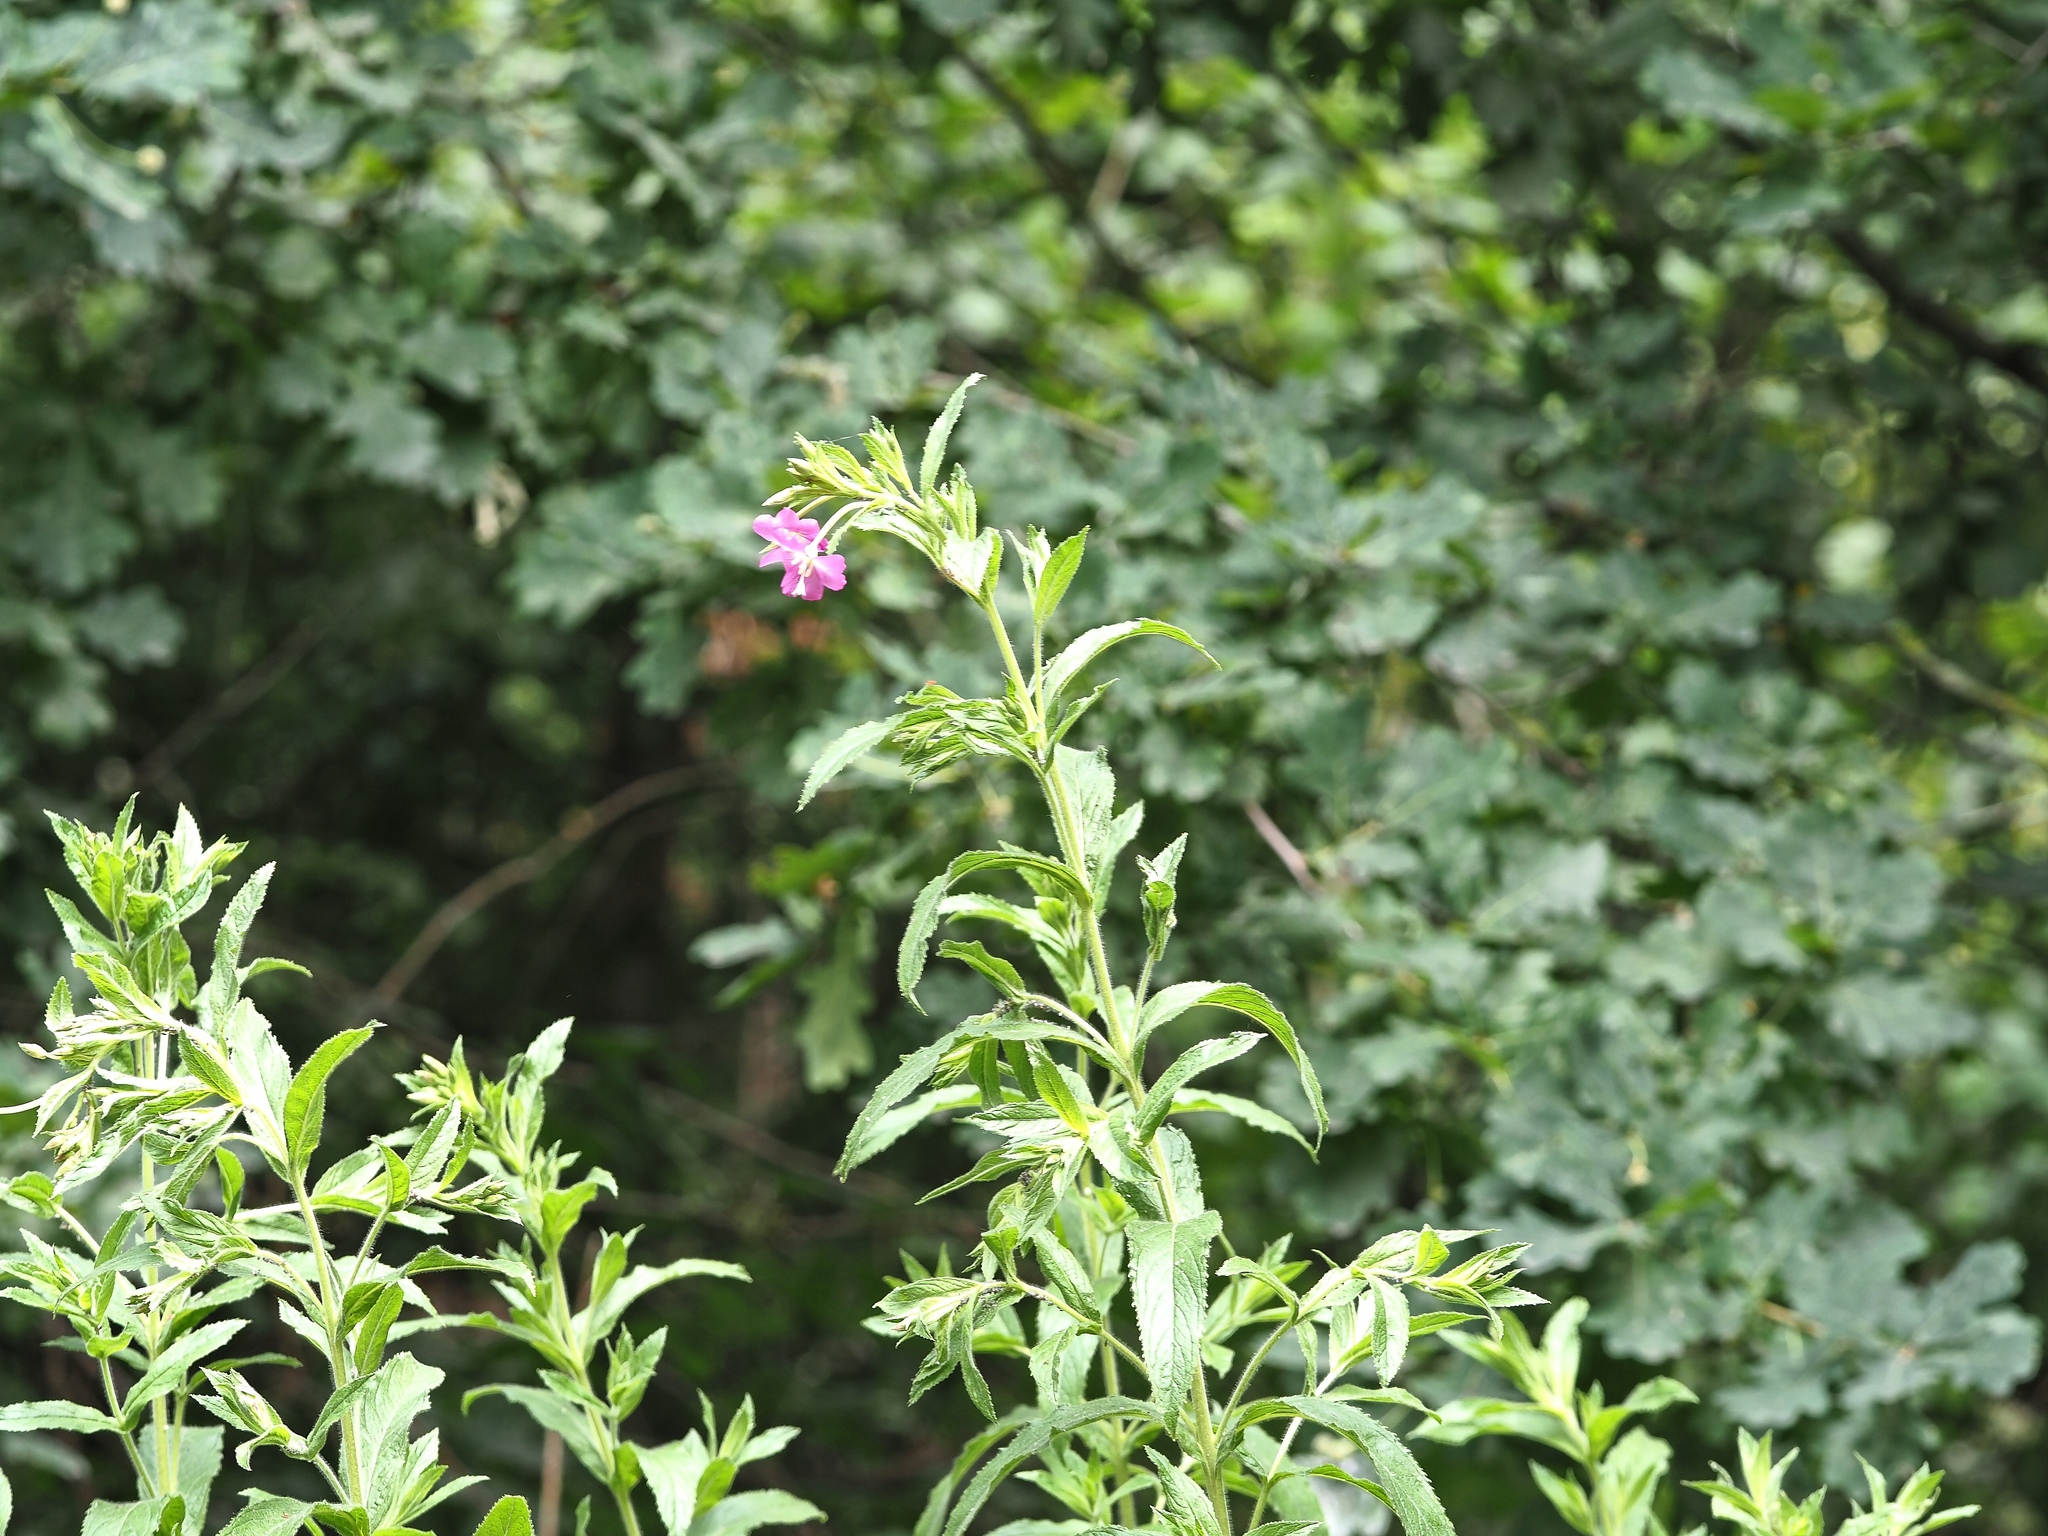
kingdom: Plantae
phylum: Tracheophyta
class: Magnoliopsida
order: Myrtales
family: Onagraceae
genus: Epilobium
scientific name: Epilobium hirsutum
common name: Great willowherb
